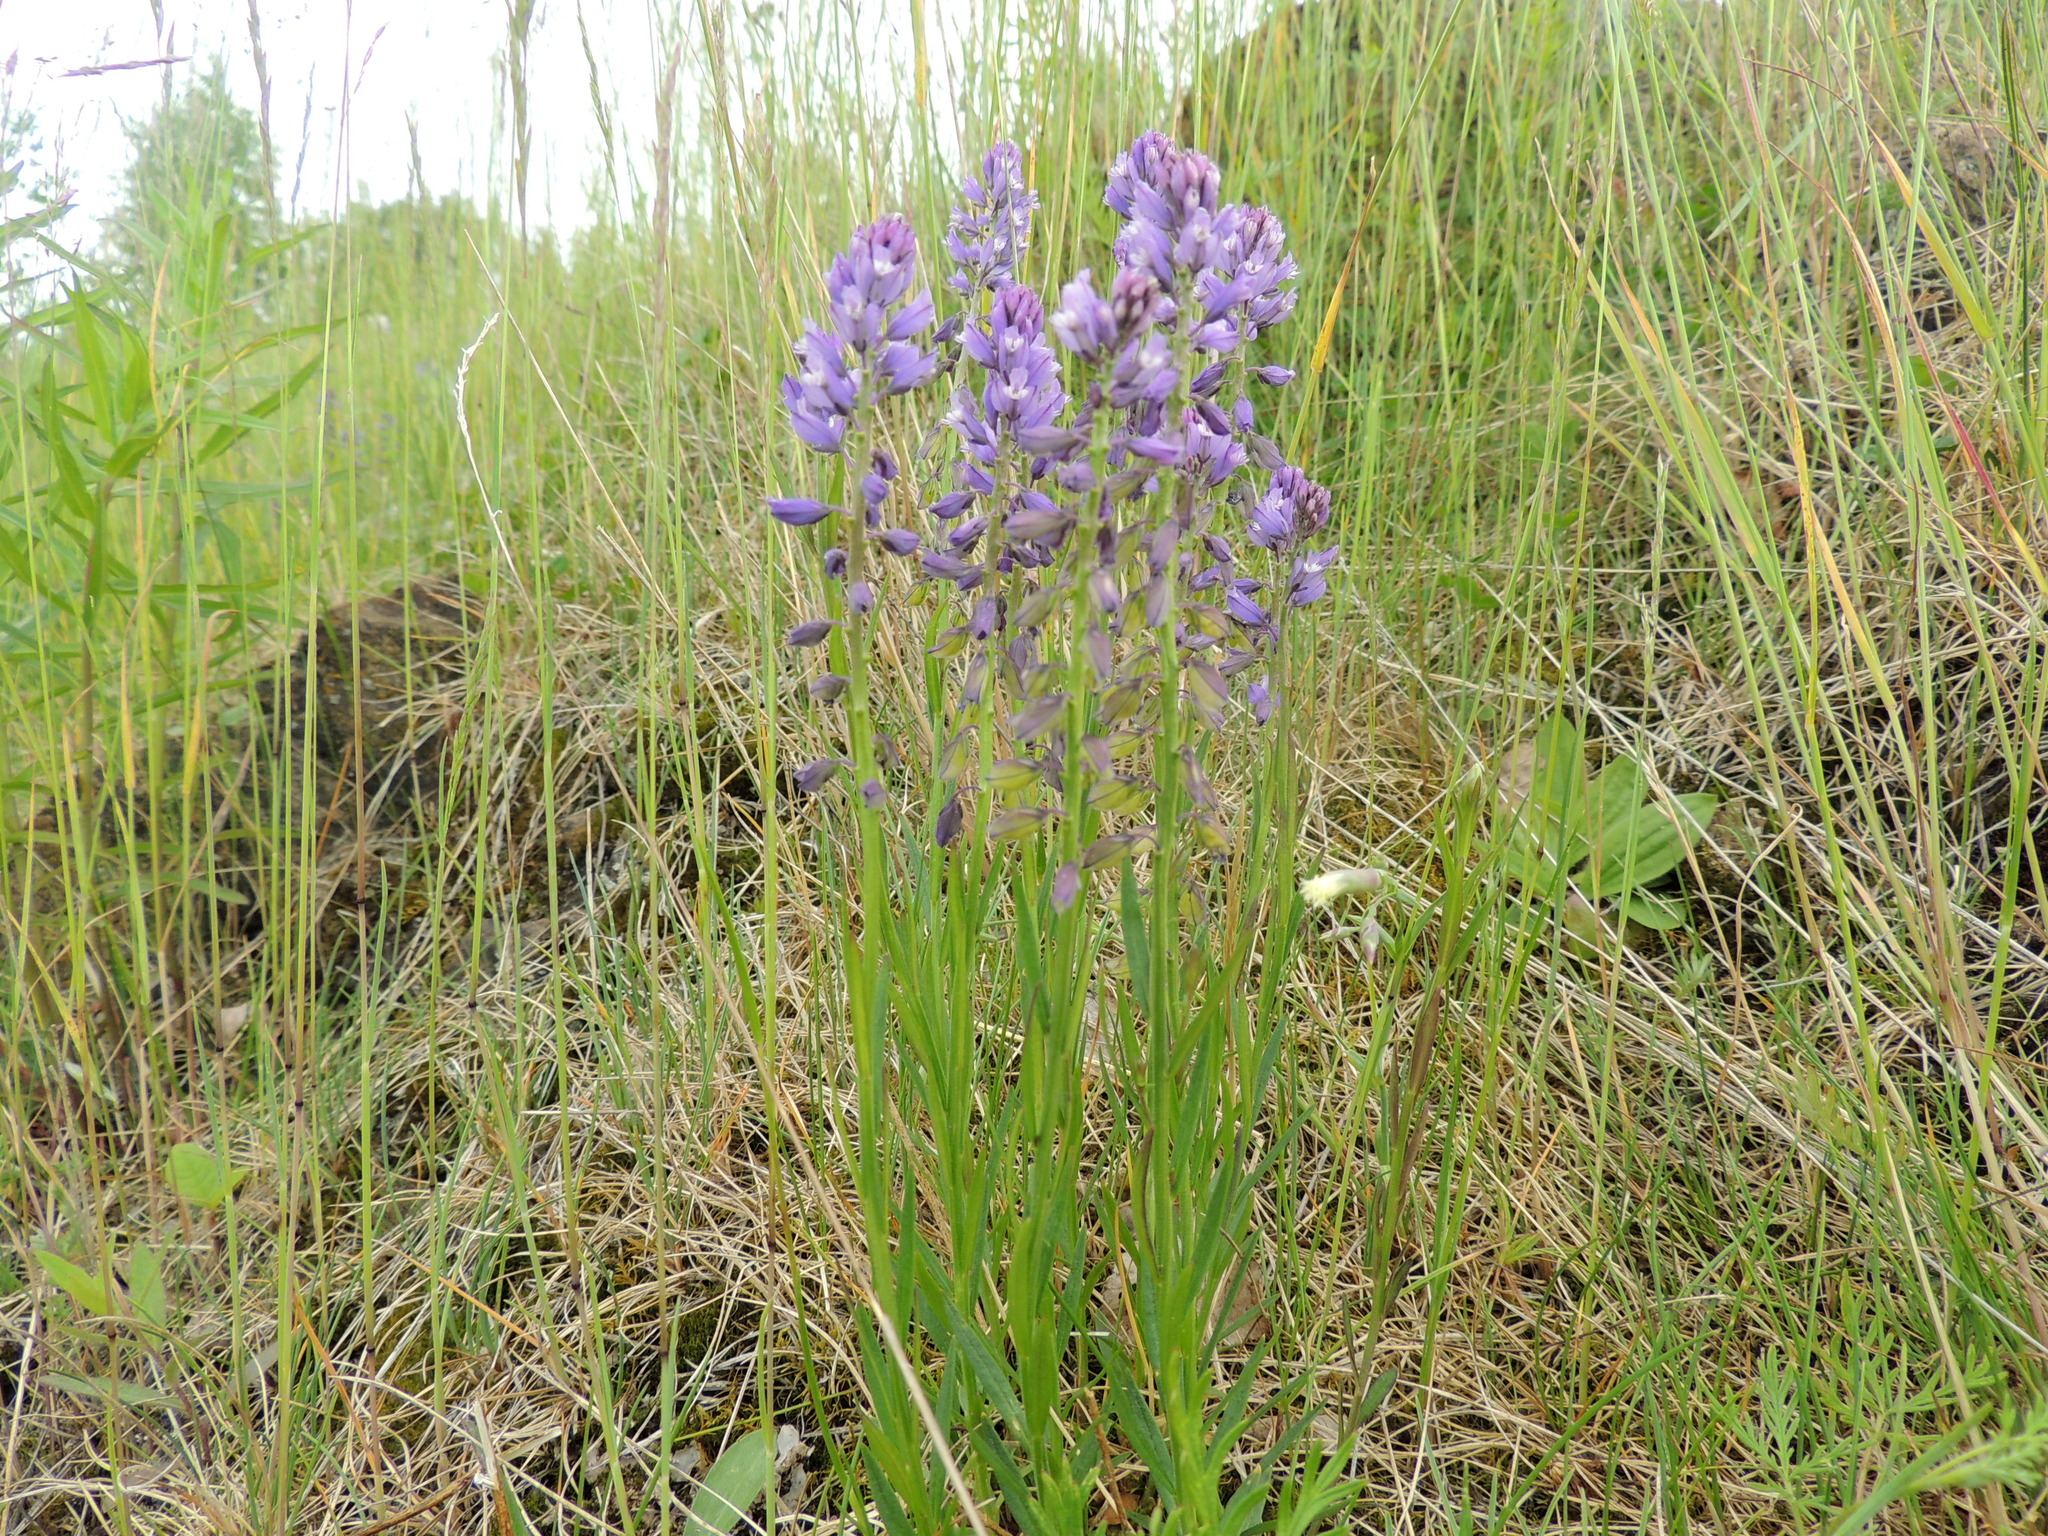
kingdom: Plantae
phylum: Tracheophyta
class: Magnoliopsida
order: Fabales
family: Polygalaceae
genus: Polygala
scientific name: Polygala comosa
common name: Tufted milkwort
